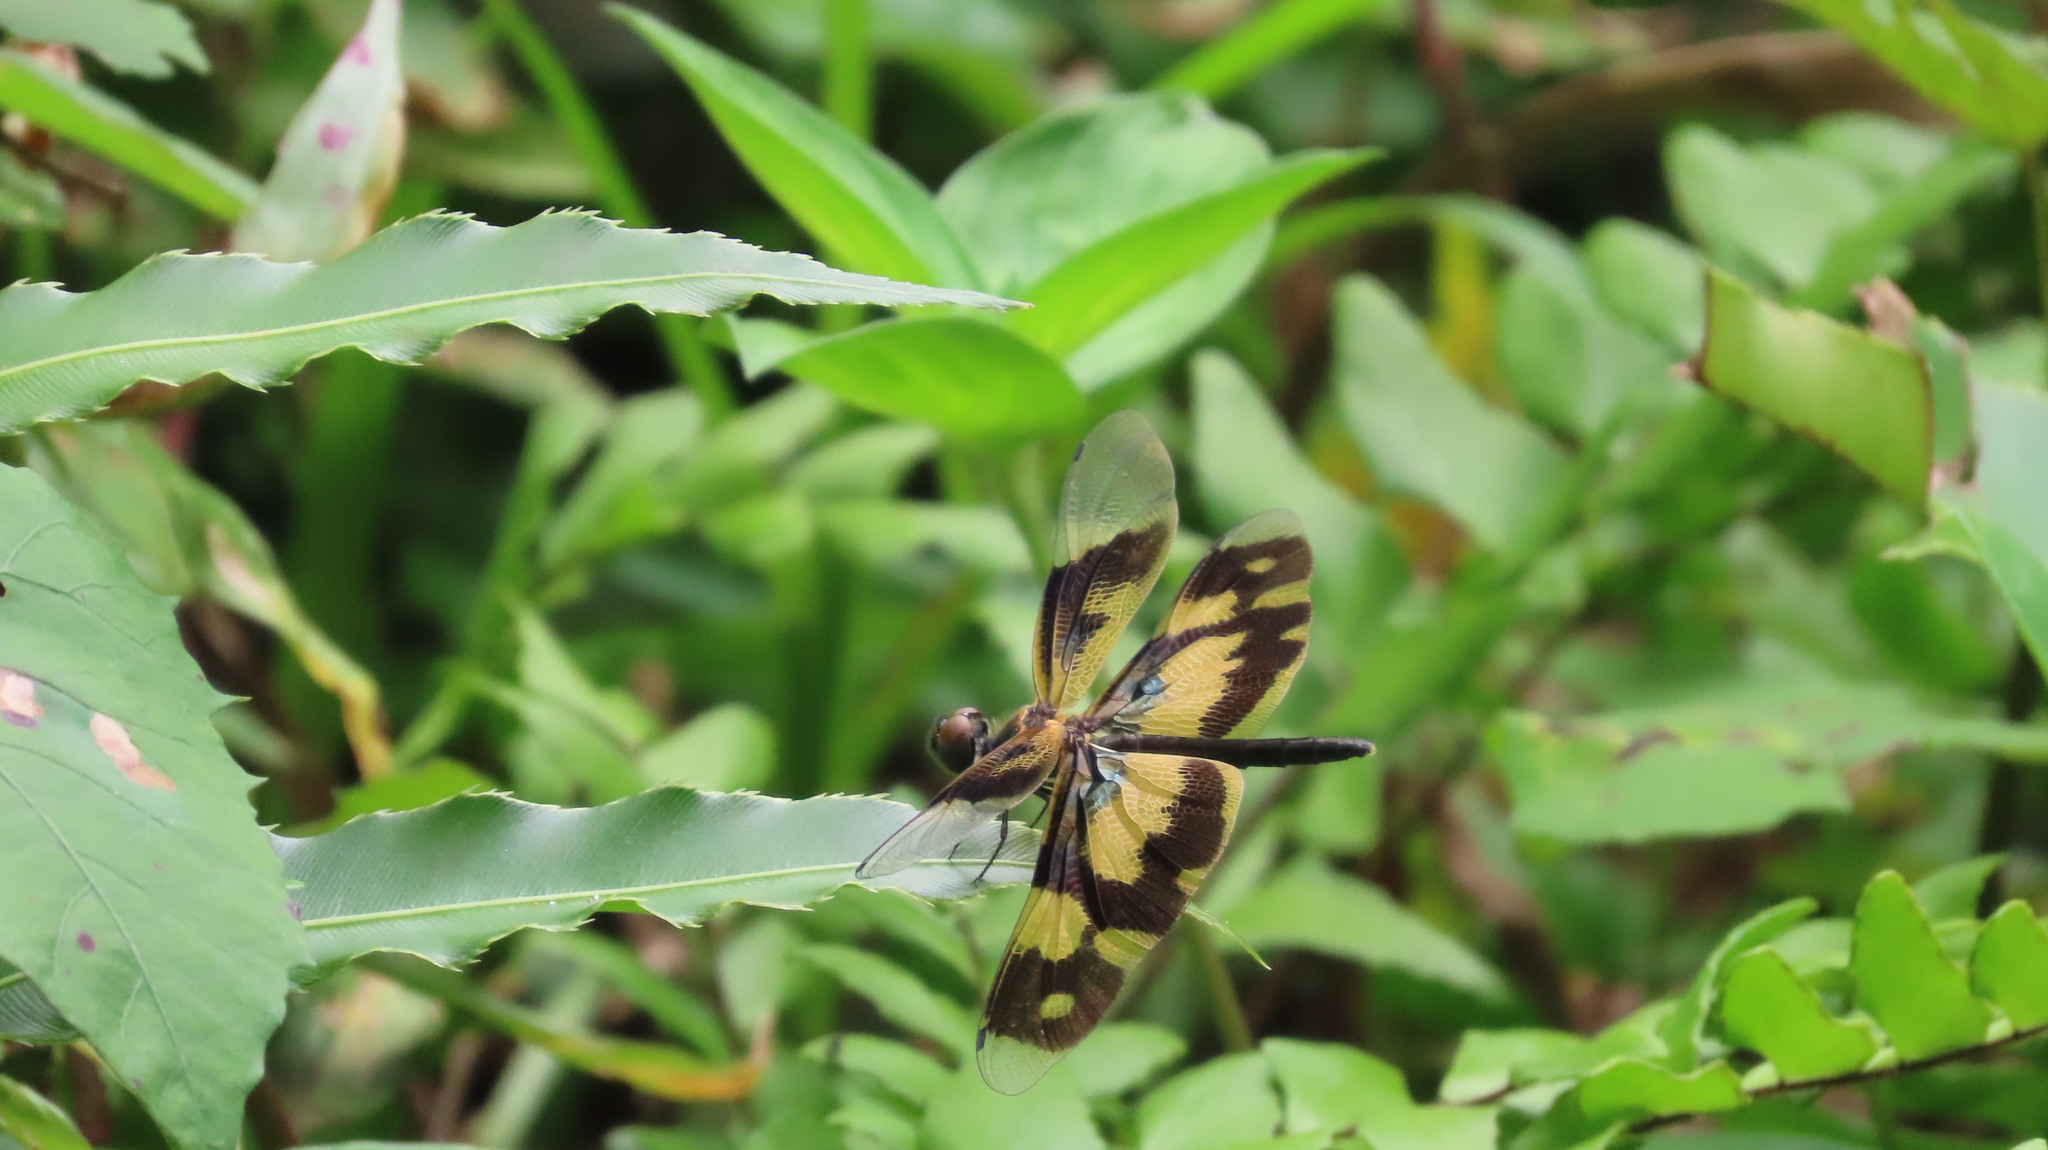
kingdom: Animalia
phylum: Arthropoda
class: Insecta
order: Odonata
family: Libellulidae
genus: Rhyothemis
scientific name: Rhyothemis variegata
